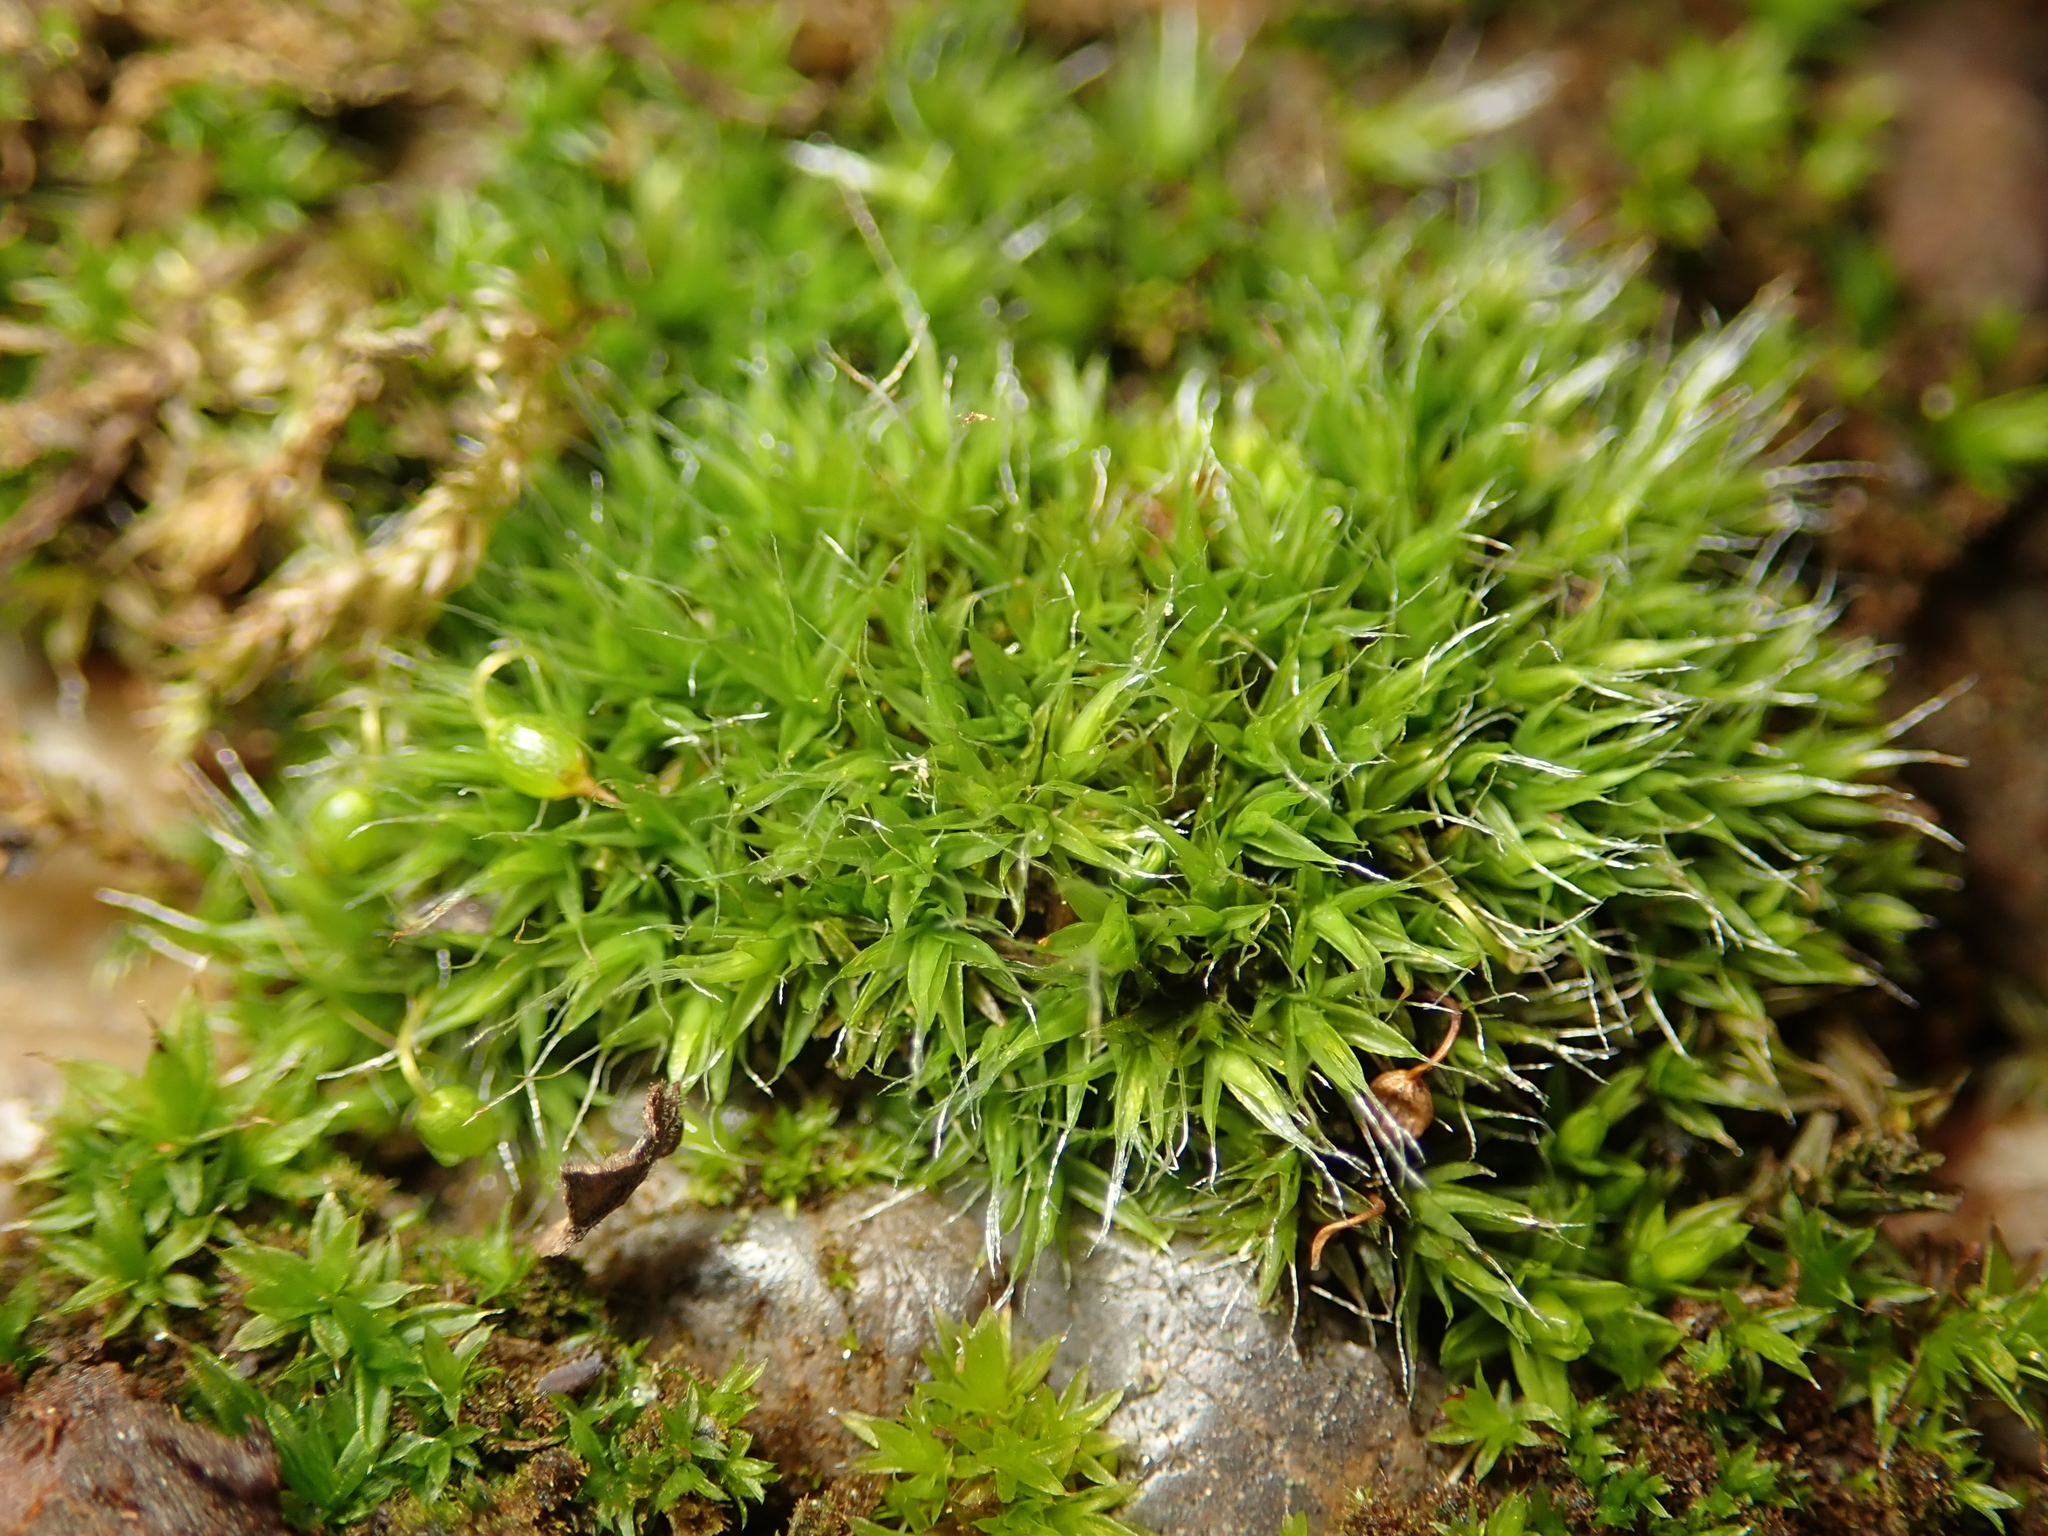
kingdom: Plantae
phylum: Bryophyta
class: Bryopsida
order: Grimmiales
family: Grimmiaceae
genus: Grimmia
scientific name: Grimmia pulvinata
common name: Grey-cushioned grimmia
